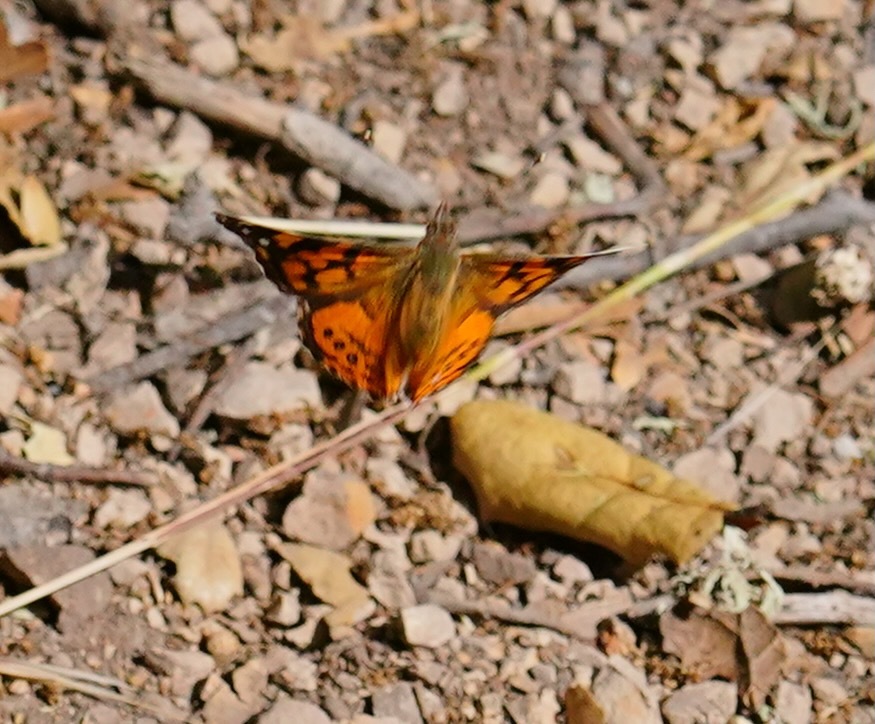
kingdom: Animalia
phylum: Arthropoda
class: Insecta
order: Lepidoptera
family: Nymphalidae
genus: Vanessa
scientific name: Vanessa annabella
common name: West coast lady
